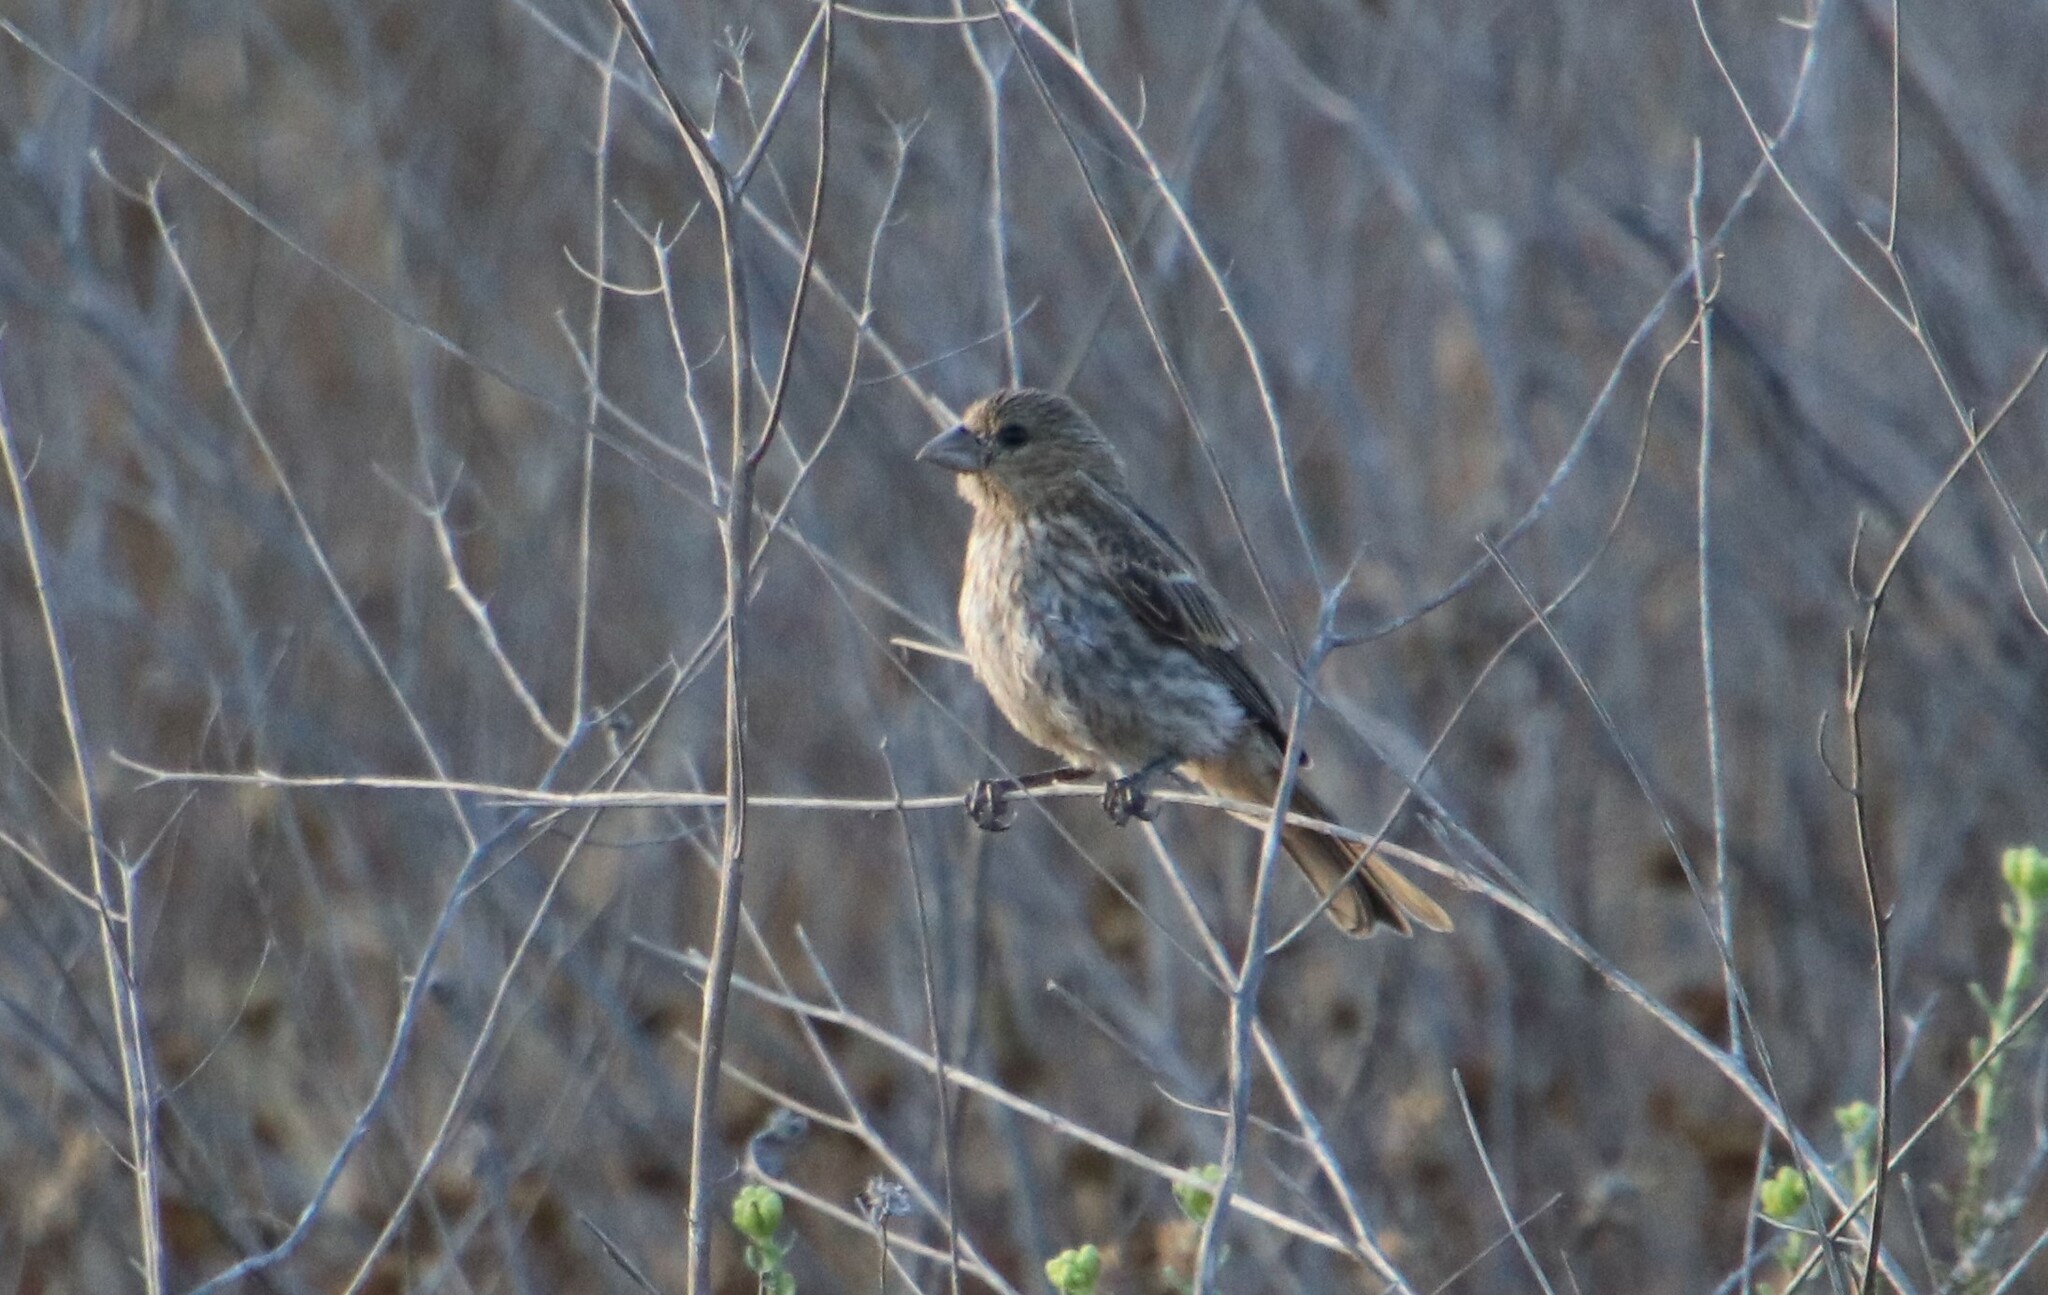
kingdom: Animalia
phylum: Chordata
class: Aves
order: Passeriformes
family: Fringillidae
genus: Haemorhous
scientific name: Haemorhous mexicanus
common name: House finch
